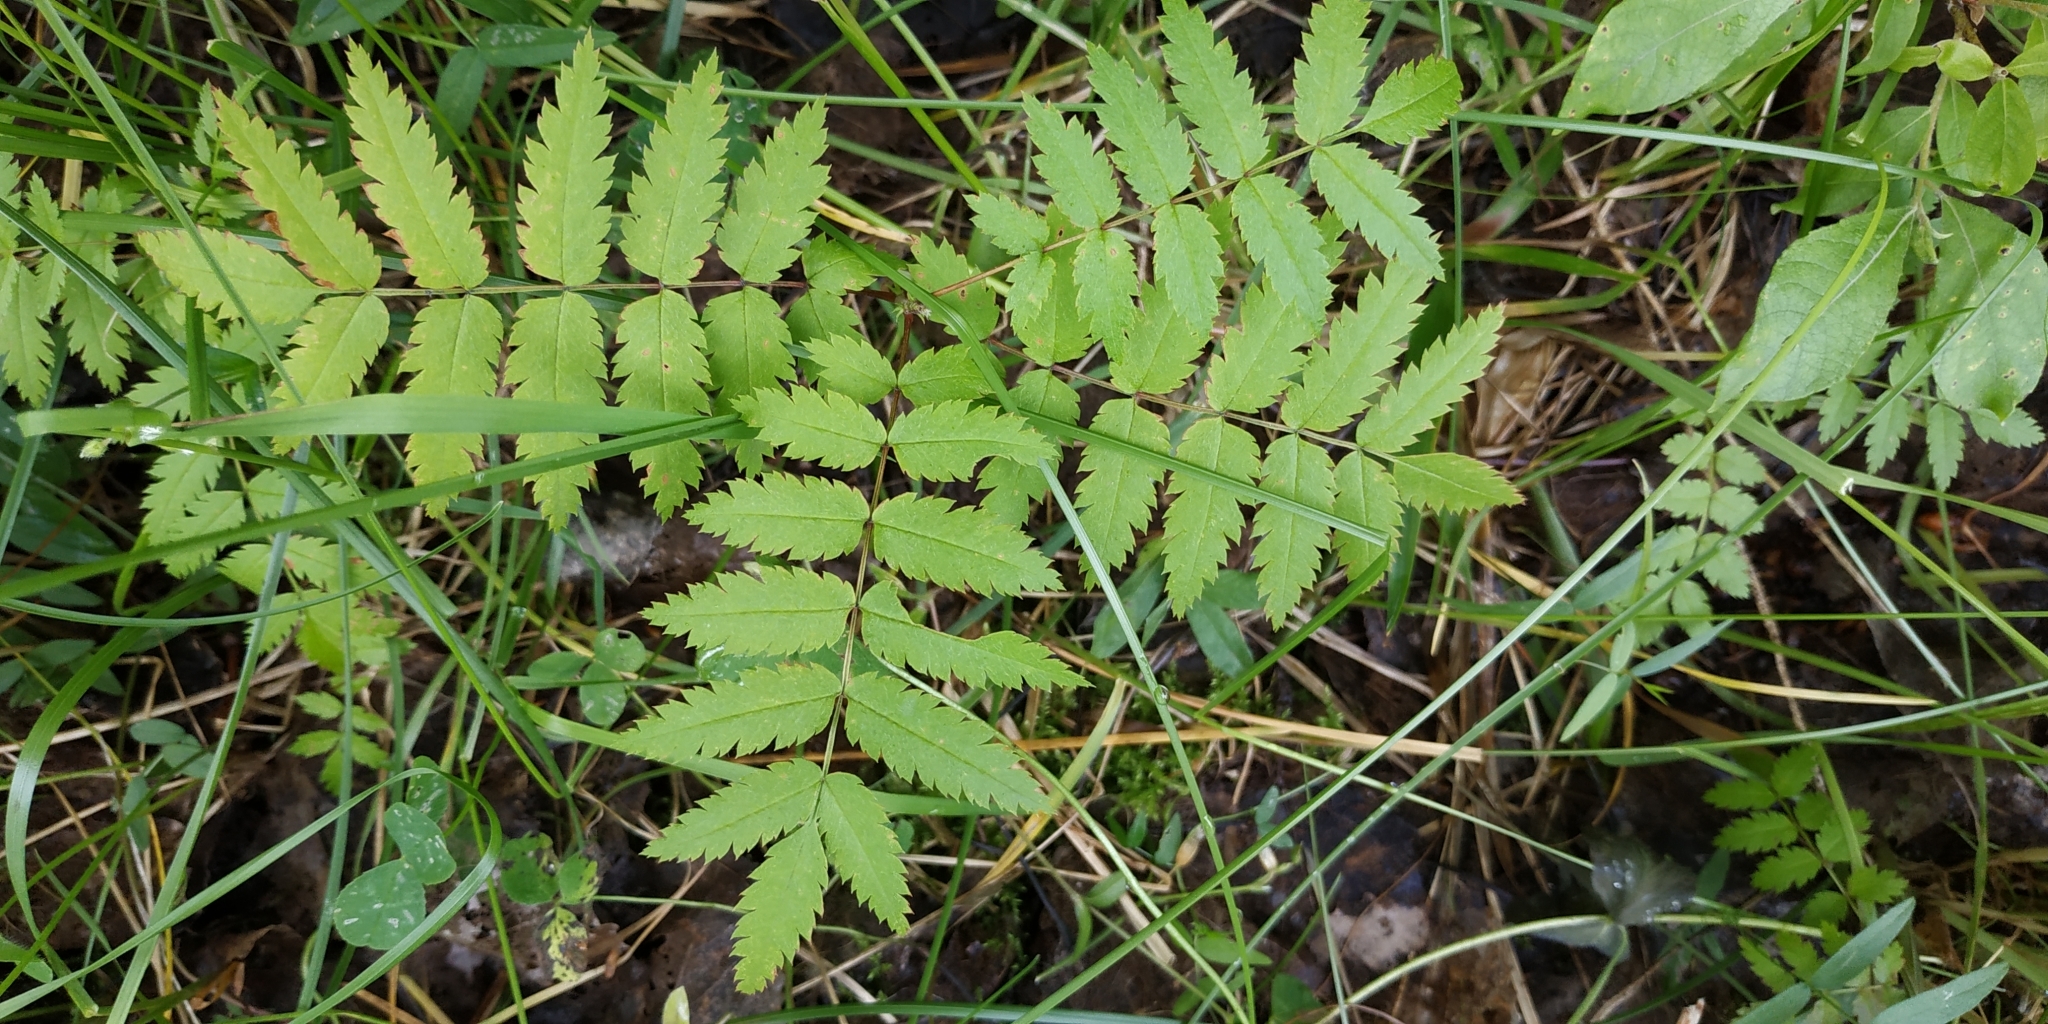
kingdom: Plantae
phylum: Tracheophyta
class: Magnoliopsida
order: Rosales
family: Rosaceae
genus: Sorbus
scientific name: Sorbus aucuparia
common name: Rowan
